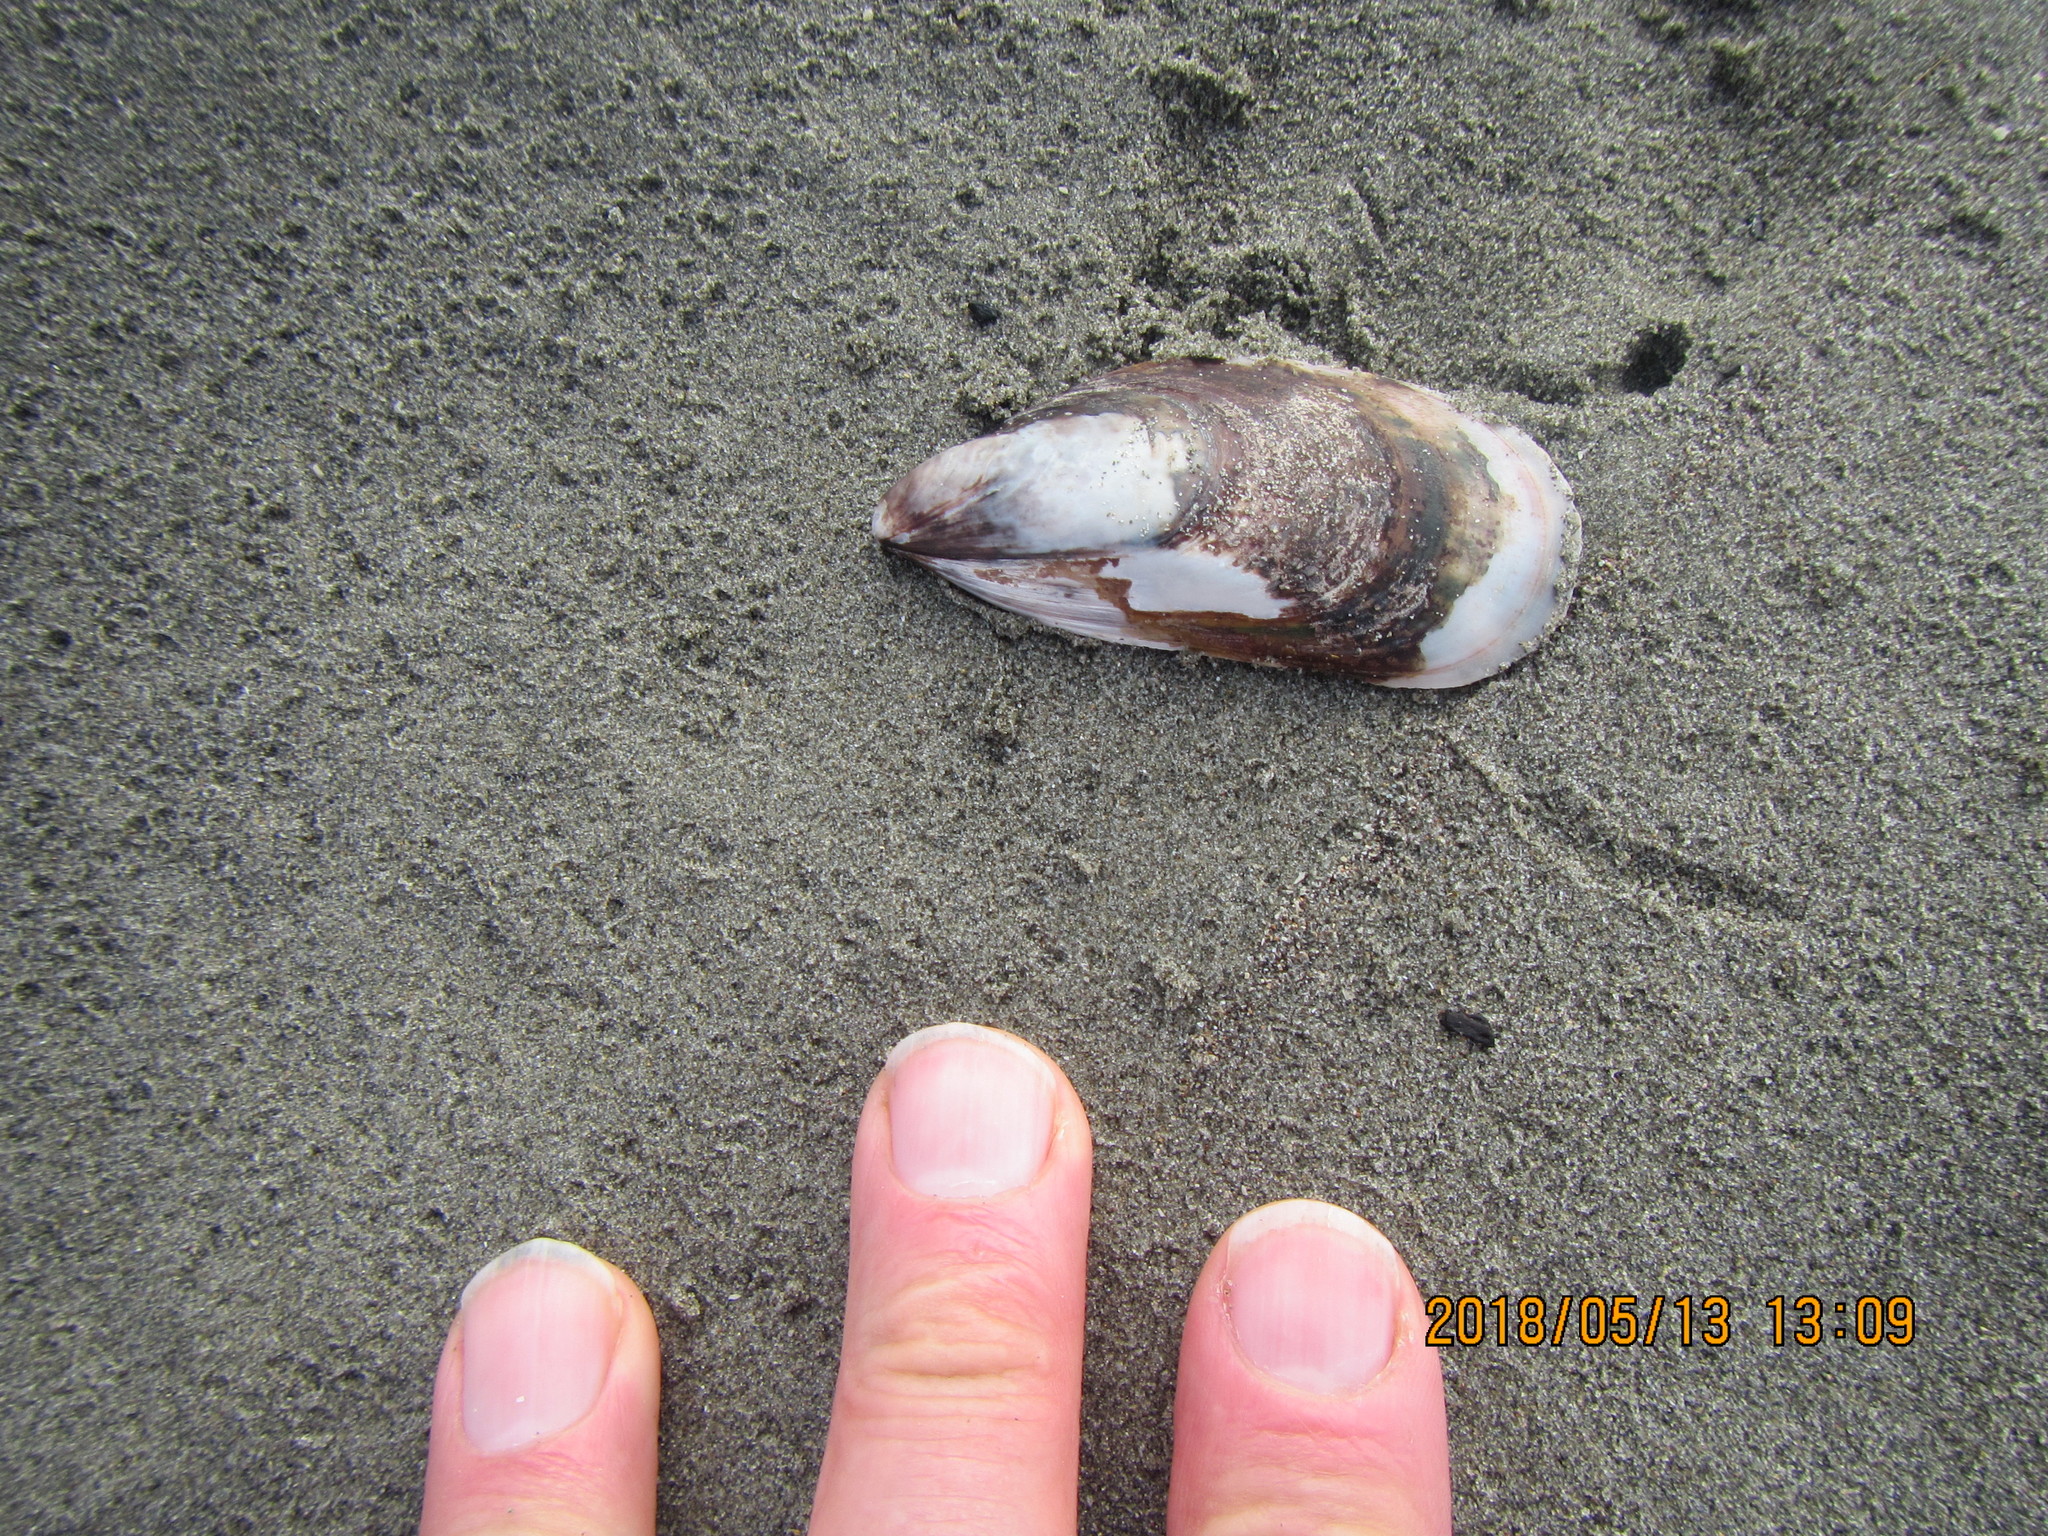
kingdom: Animalia
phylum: Mollusca
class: Bivalvia
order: Mytilida
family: Mytilidae
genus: Perna
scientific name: Perna canaliculus
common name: New zealand greenshelltm
